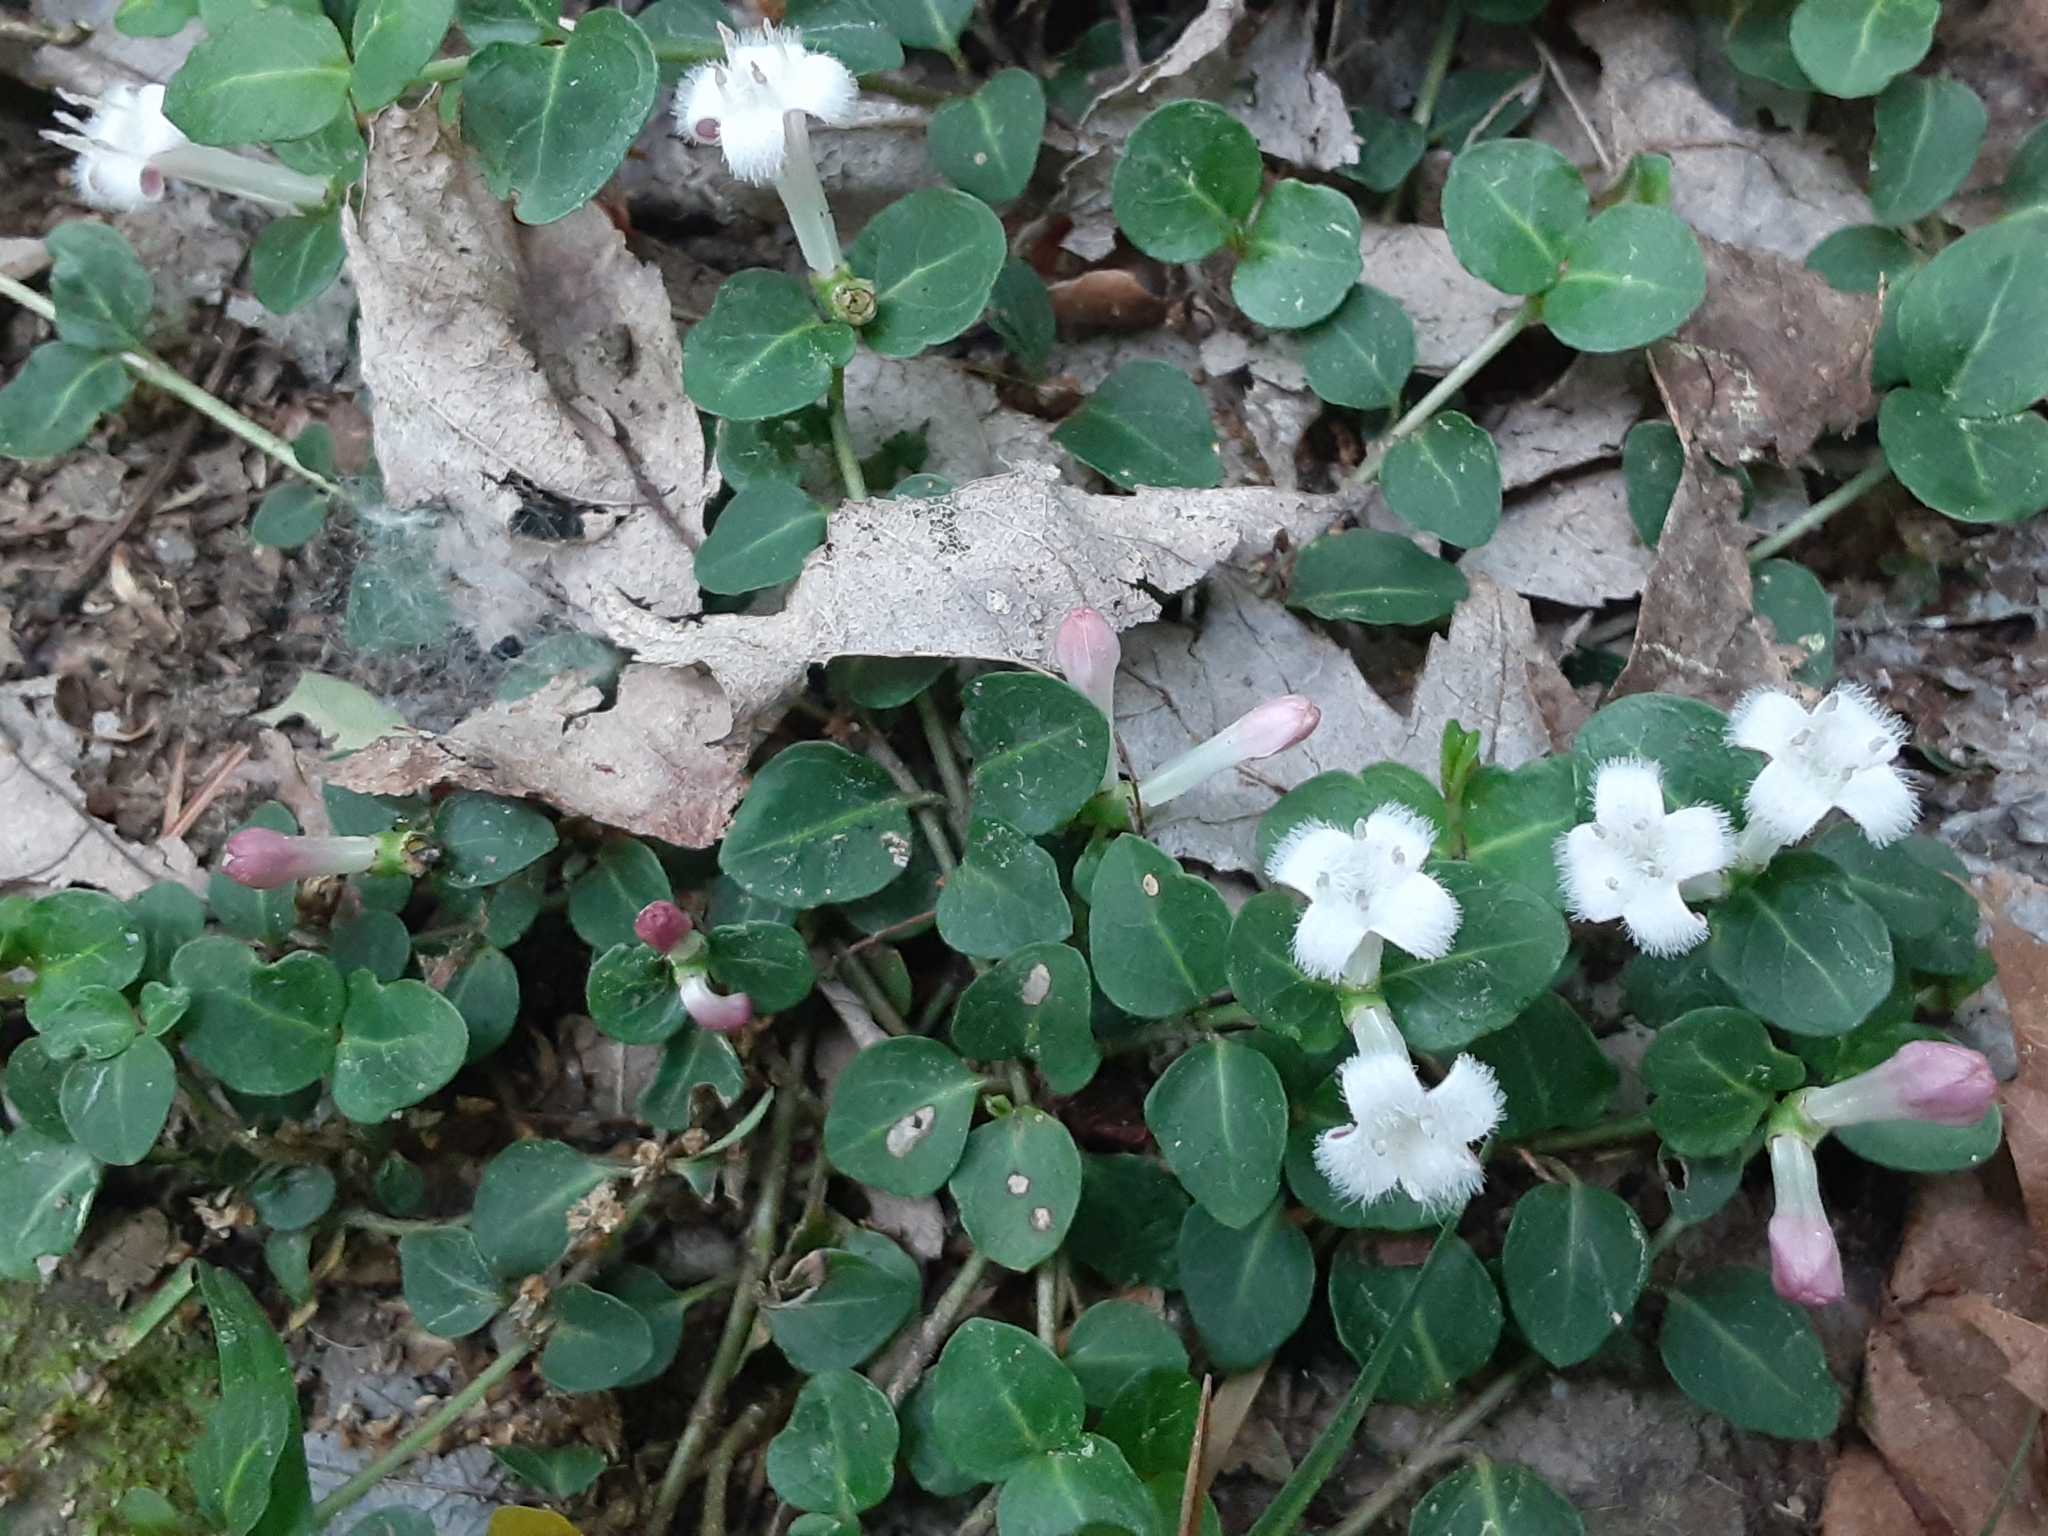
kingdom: Plantae
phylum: Tracheophyta
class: Magnoliopsida
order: Gentianales
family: Rubiaceae
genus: Mitchella
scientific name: Mitchella repens
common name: Partridge-berry
